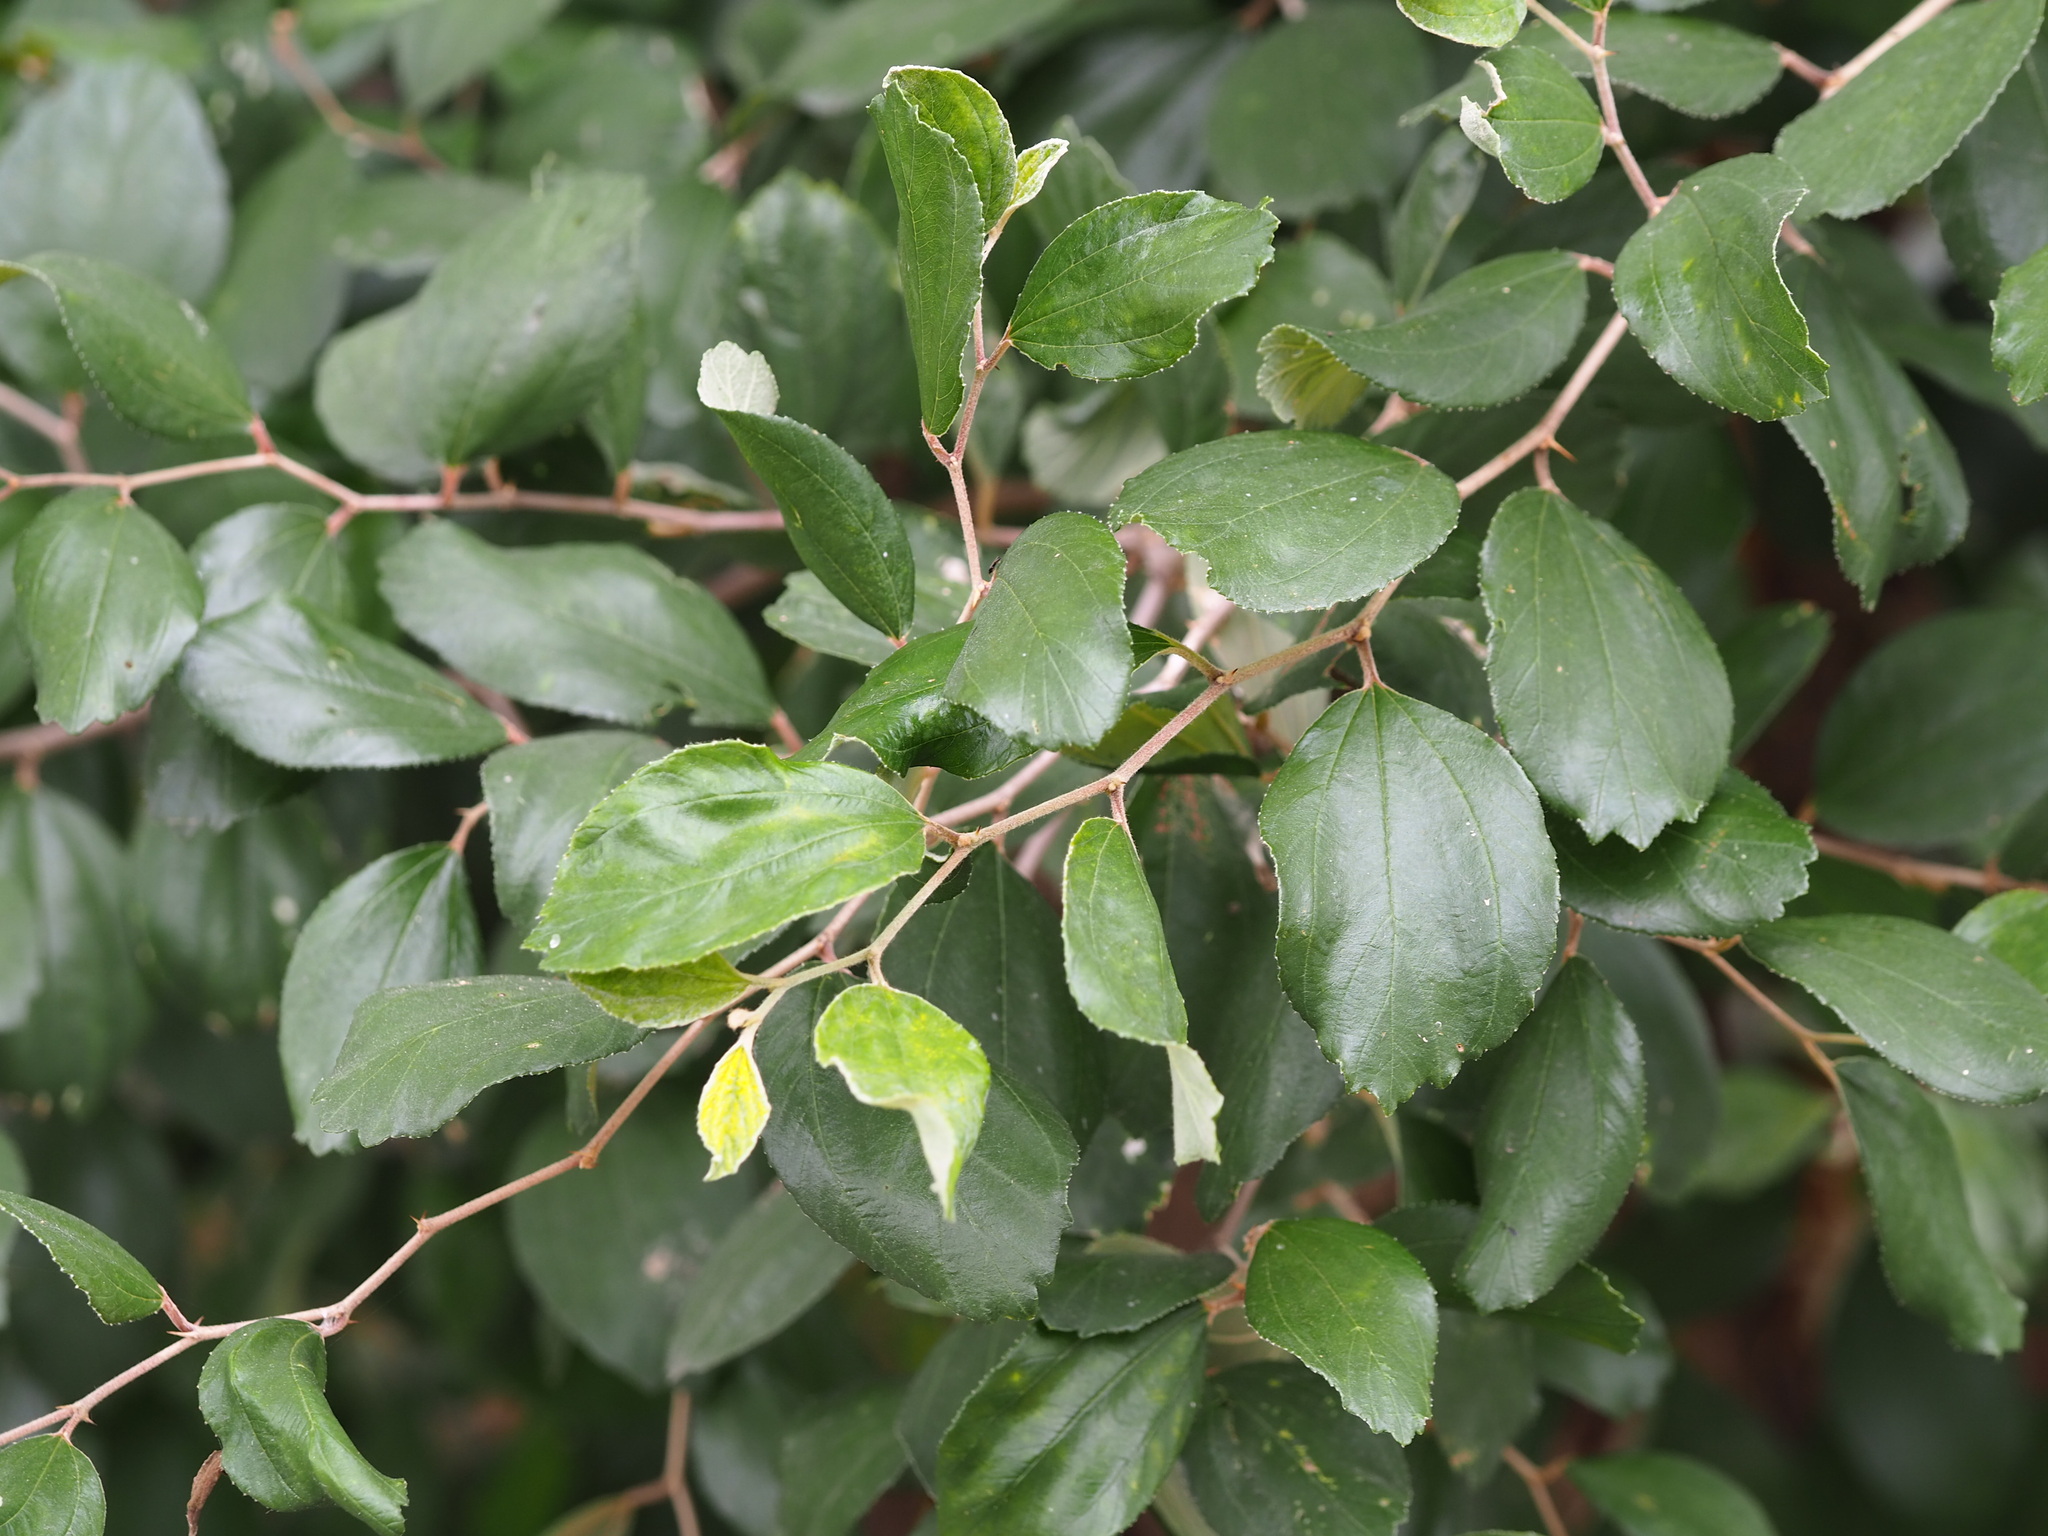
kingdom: Plantae
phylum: Tracheophyta
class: Magnoliopsida
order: Rosales
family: Rhamnaceae
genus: Ziziphus
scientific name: Ziziphus mauritiana
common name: Indian jujube
